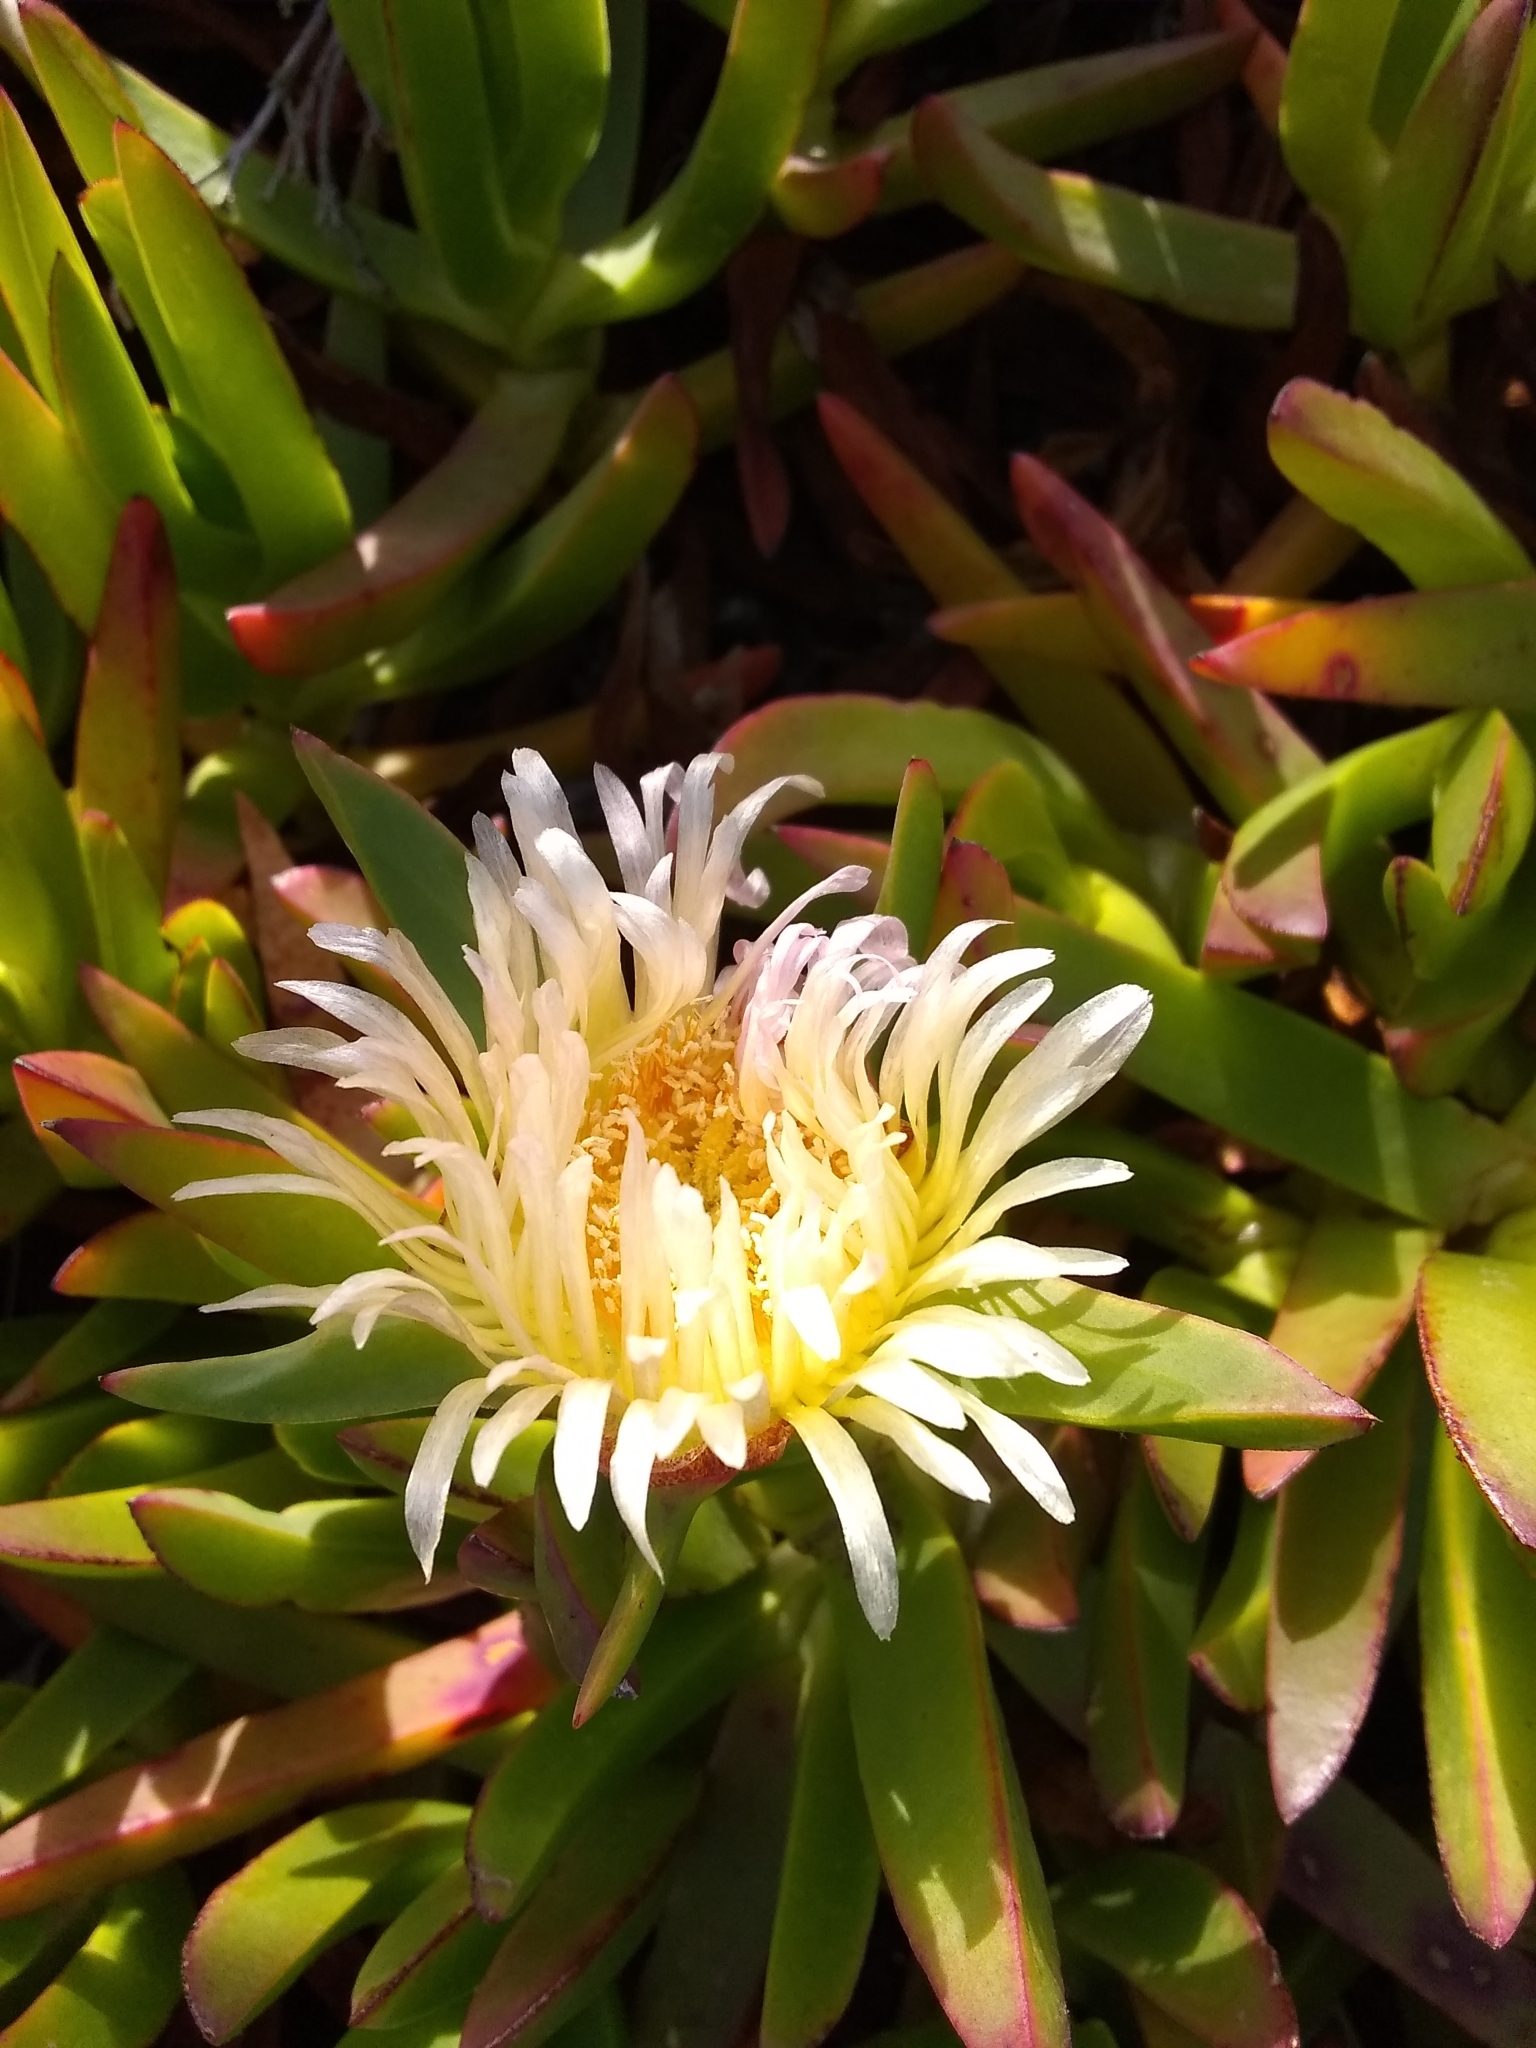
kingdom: Plantae
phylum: Tracheophyta
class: Magnoliopsida
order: Caryophyllales
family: Aizoaceae
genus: Carpobrotus
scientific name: Carpobrotus edulis
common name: Hottentot-fig
